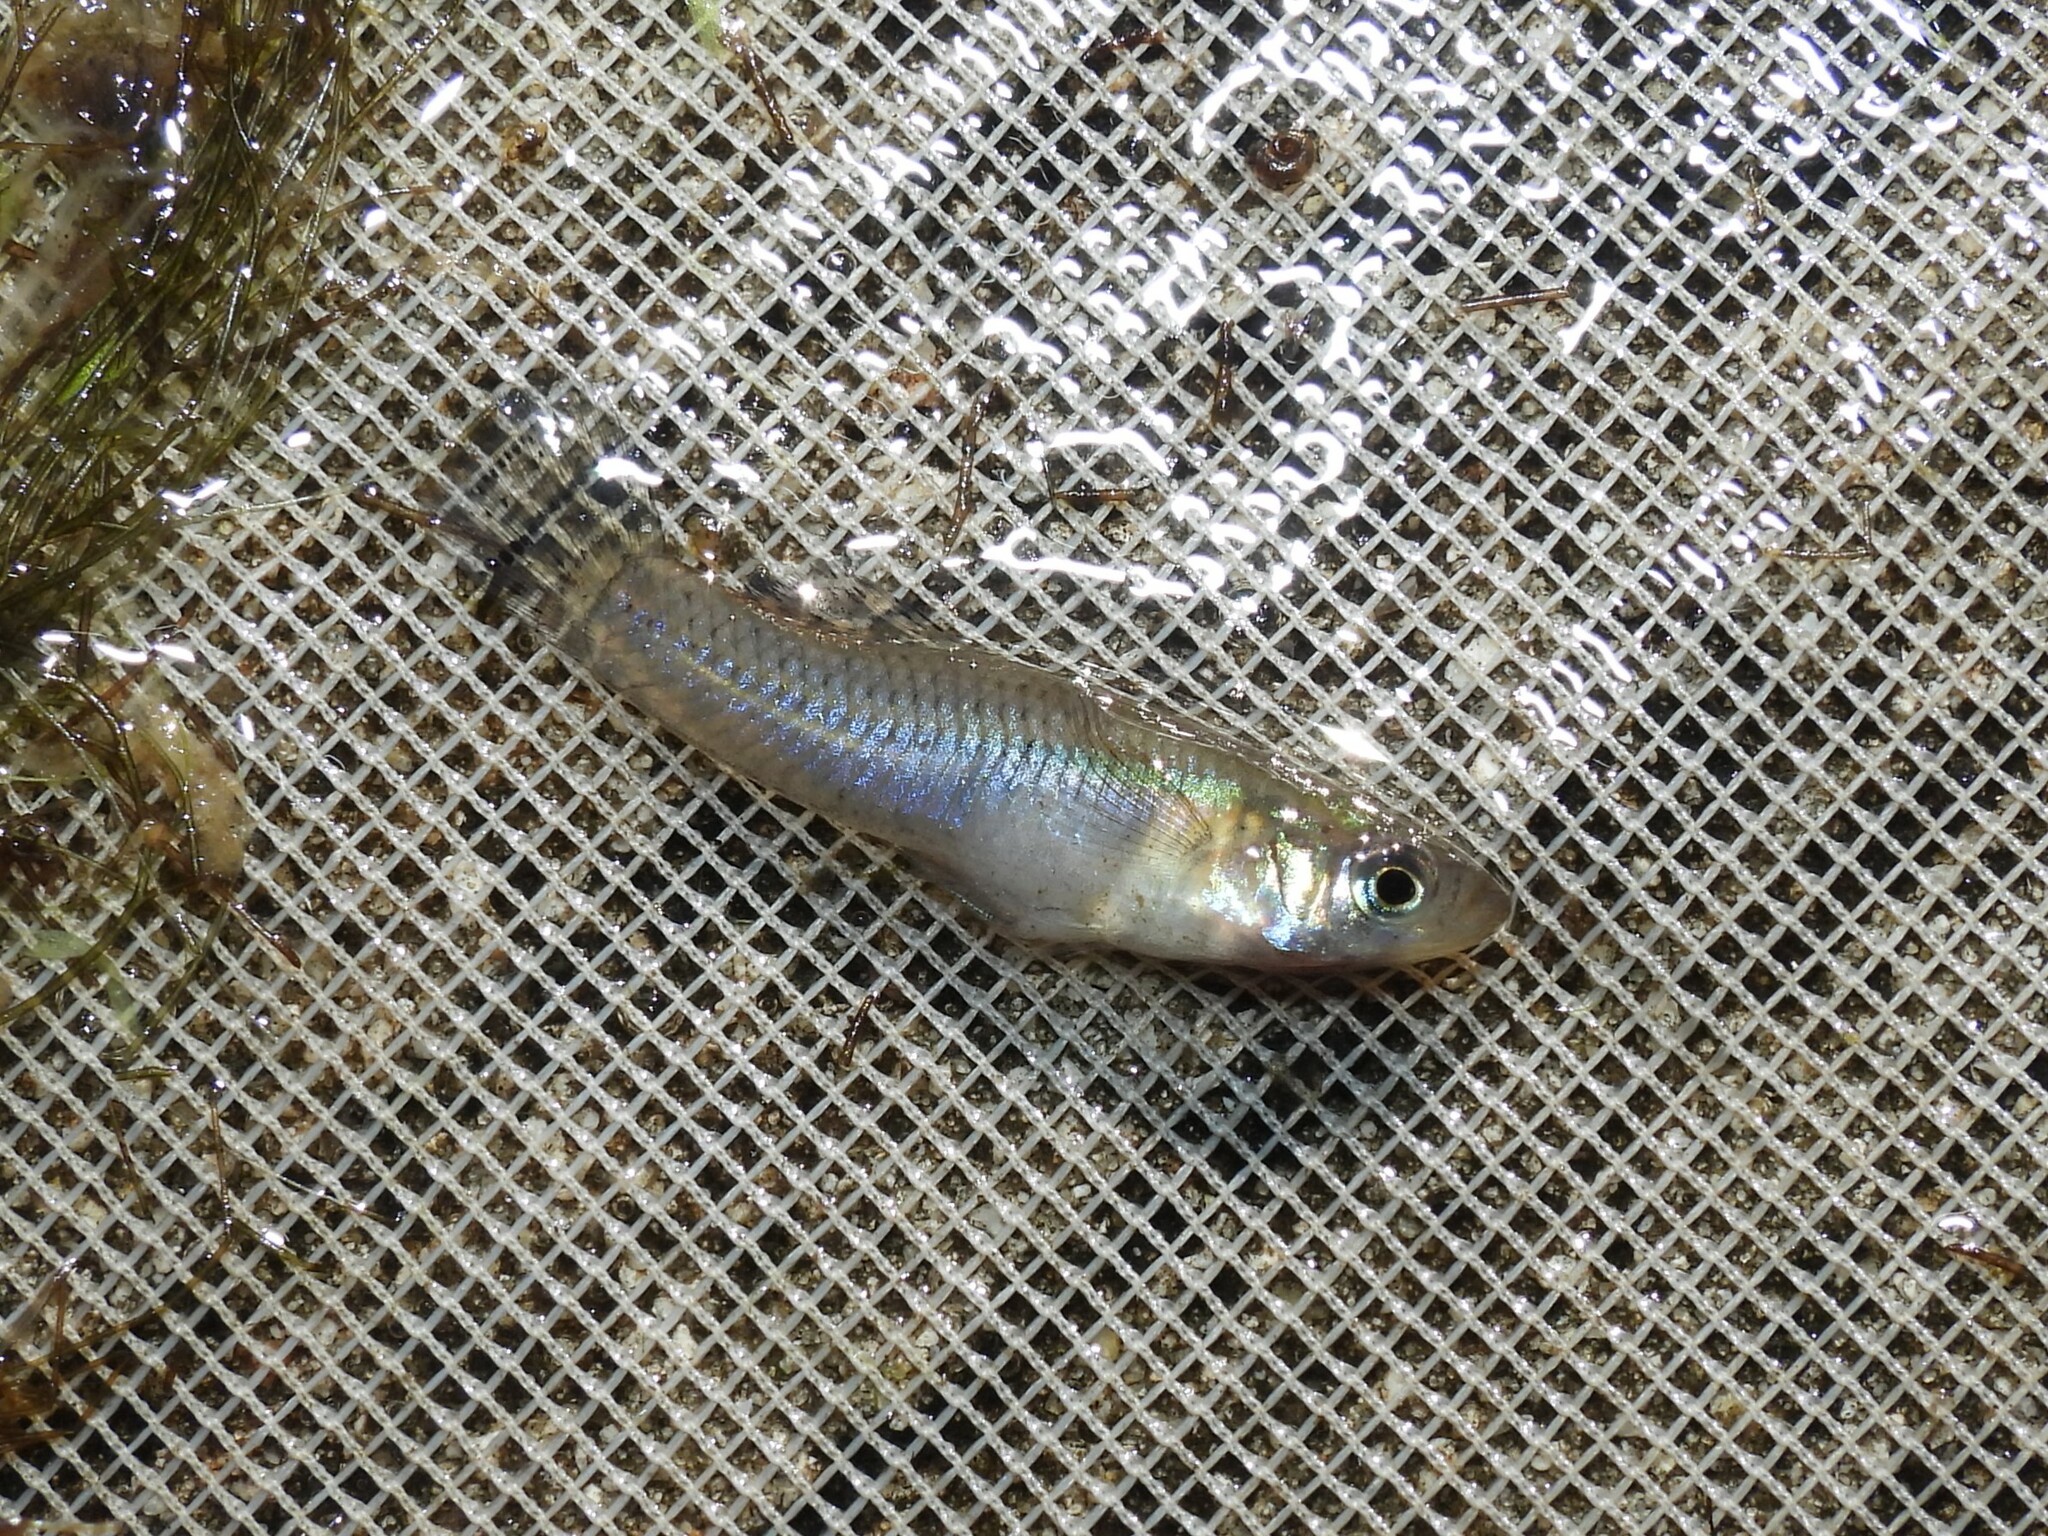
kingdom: Animalia
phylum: Chordata
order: Cyprinodontiformes
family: Poeciliidae
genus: Gambusia
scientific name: Gambusia holbrooki
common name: Eastern mosquitofish
